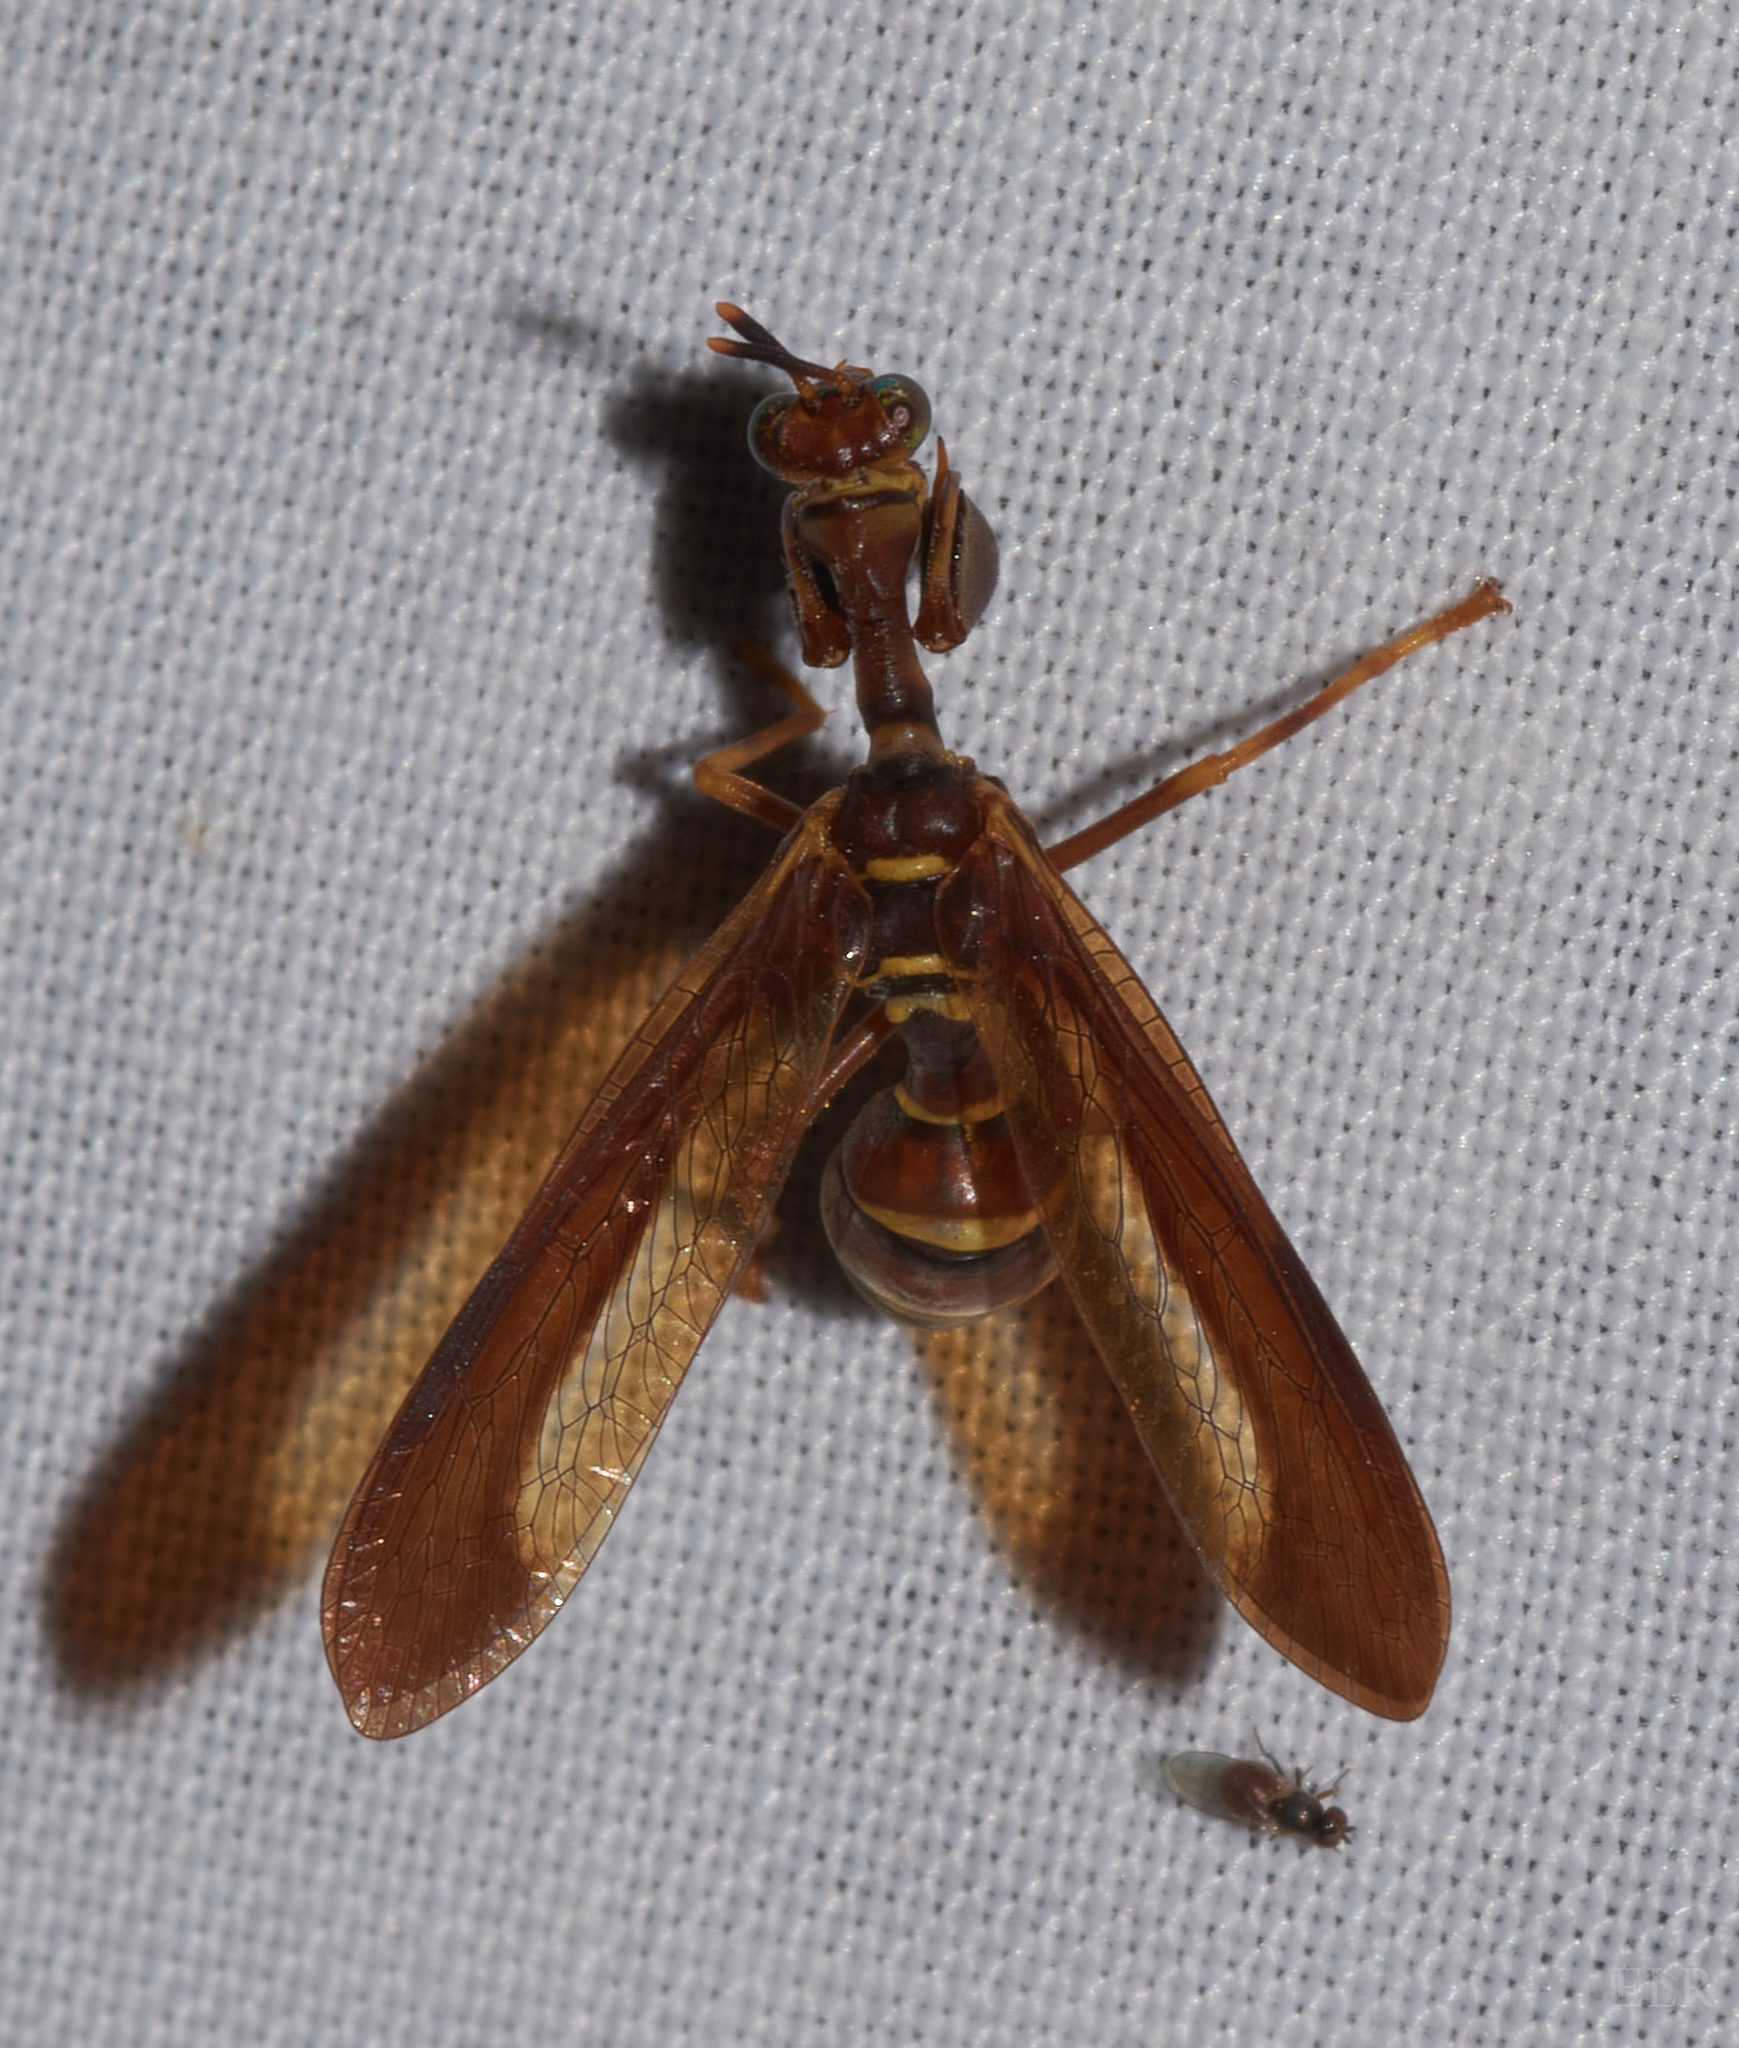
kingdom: Animalia
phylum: Arthropoda
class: Insecta
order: Neuroptera
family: Mantispidae
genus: Climaciella
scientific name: Climaciella brunnea
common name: Brown wasp mantidfly
